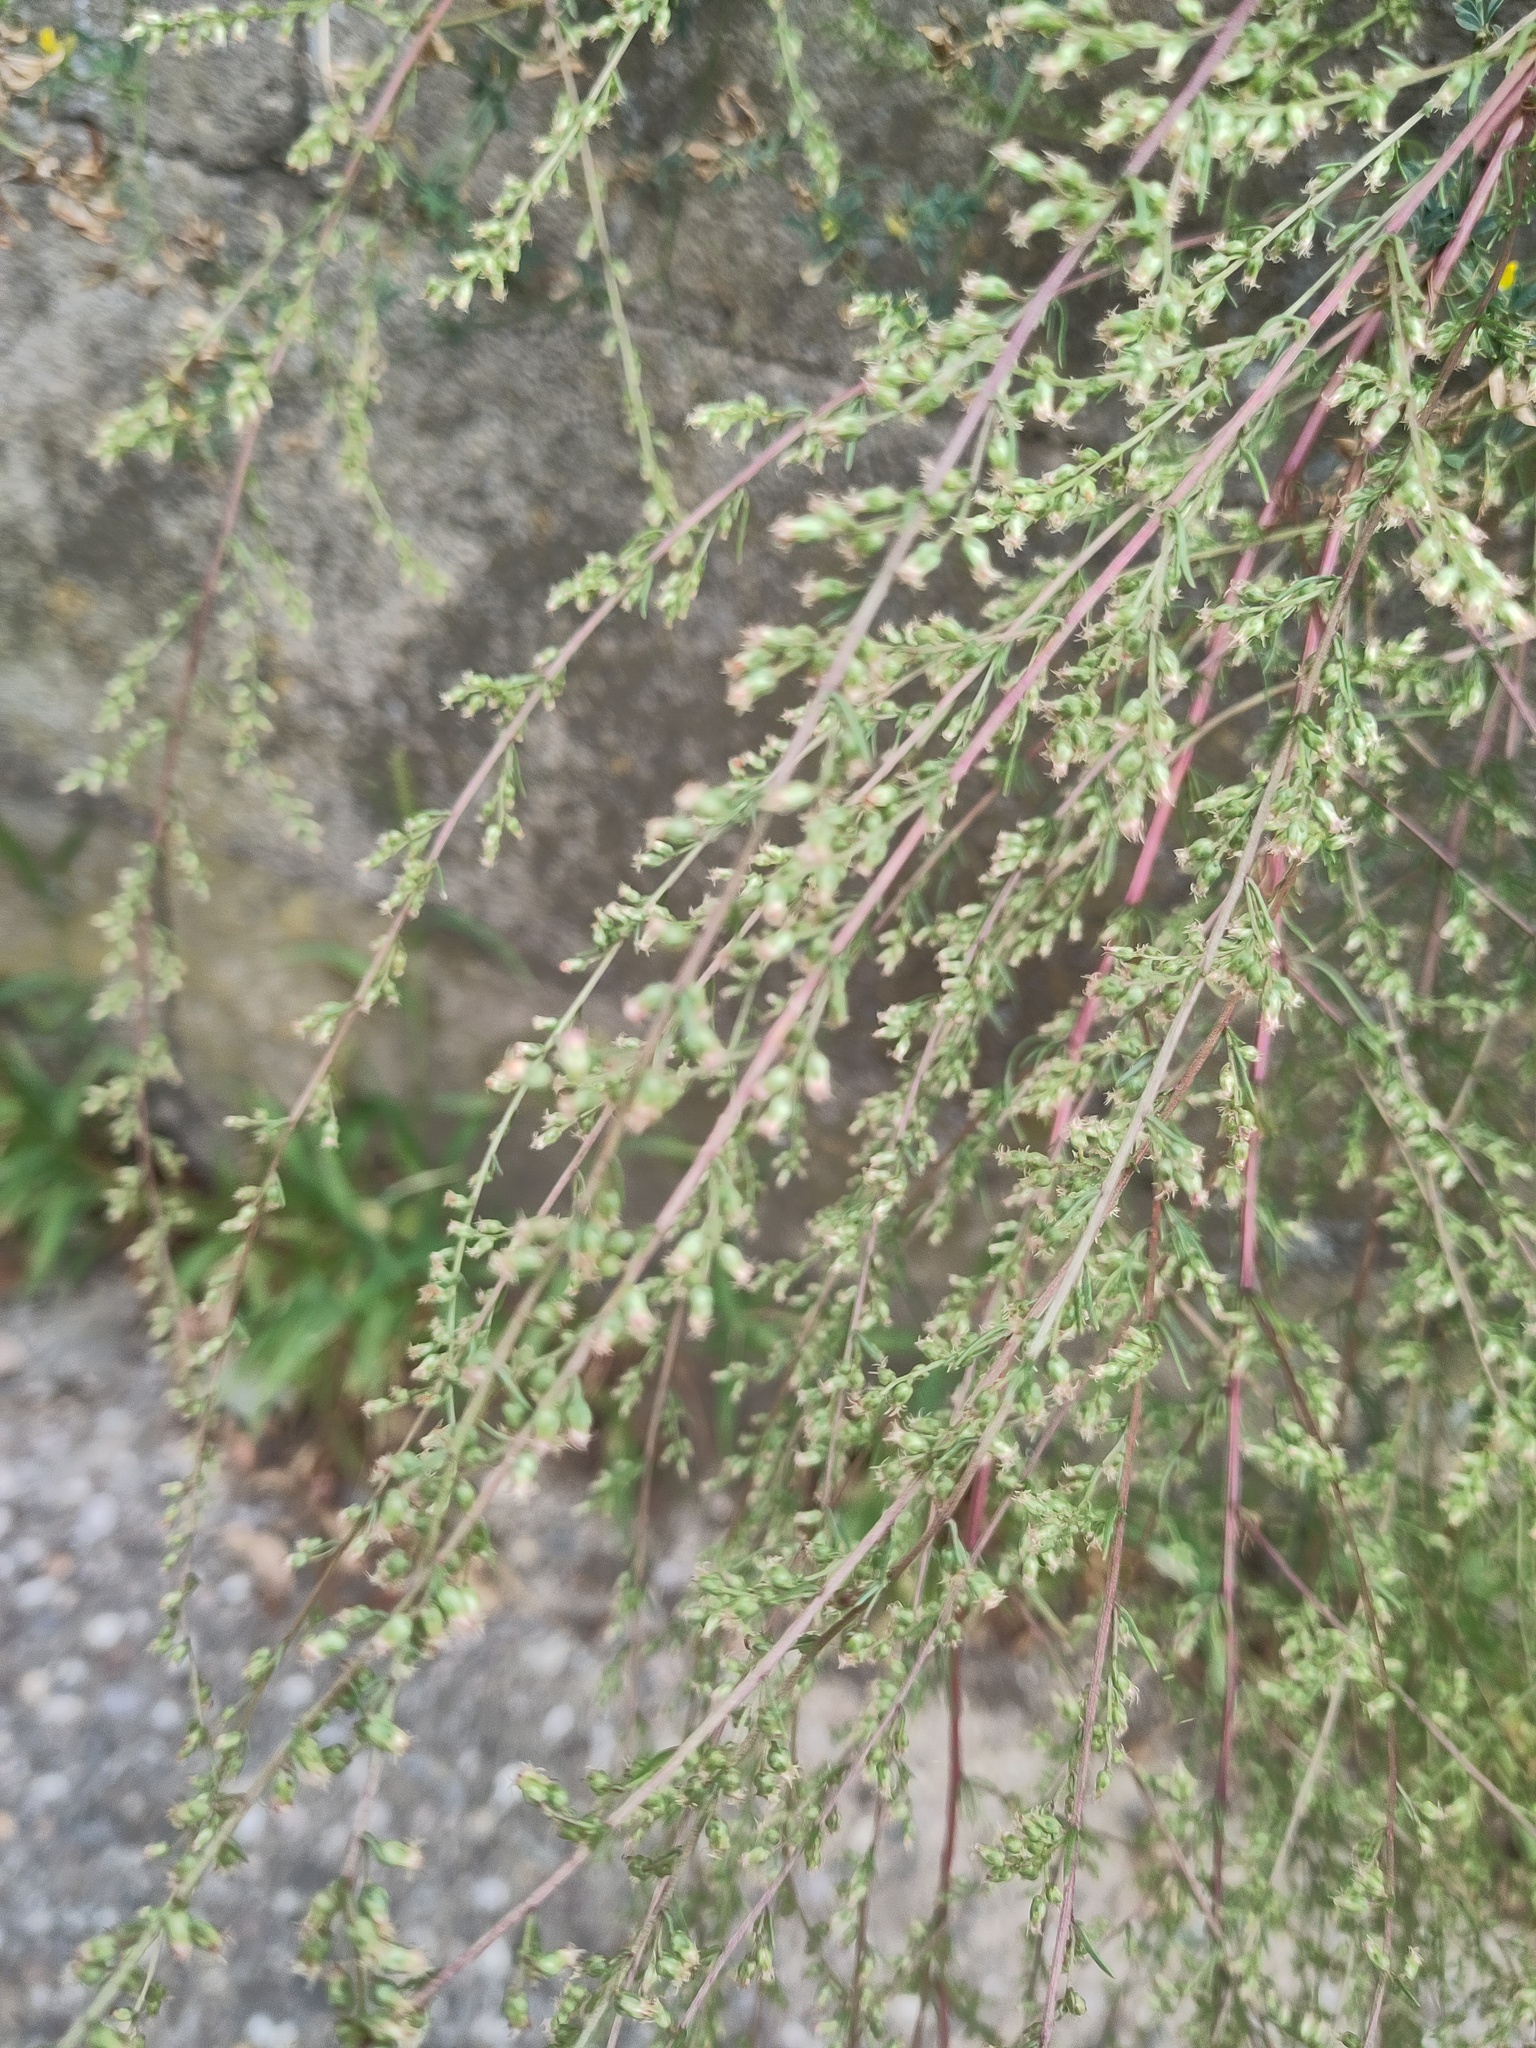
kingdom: Plantae
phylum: Tracheophyta
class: Magnoliopsida
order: Asterales
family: Asteraceae
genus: Artemisia
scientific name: Artemisia campestris
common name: Field wormwood
